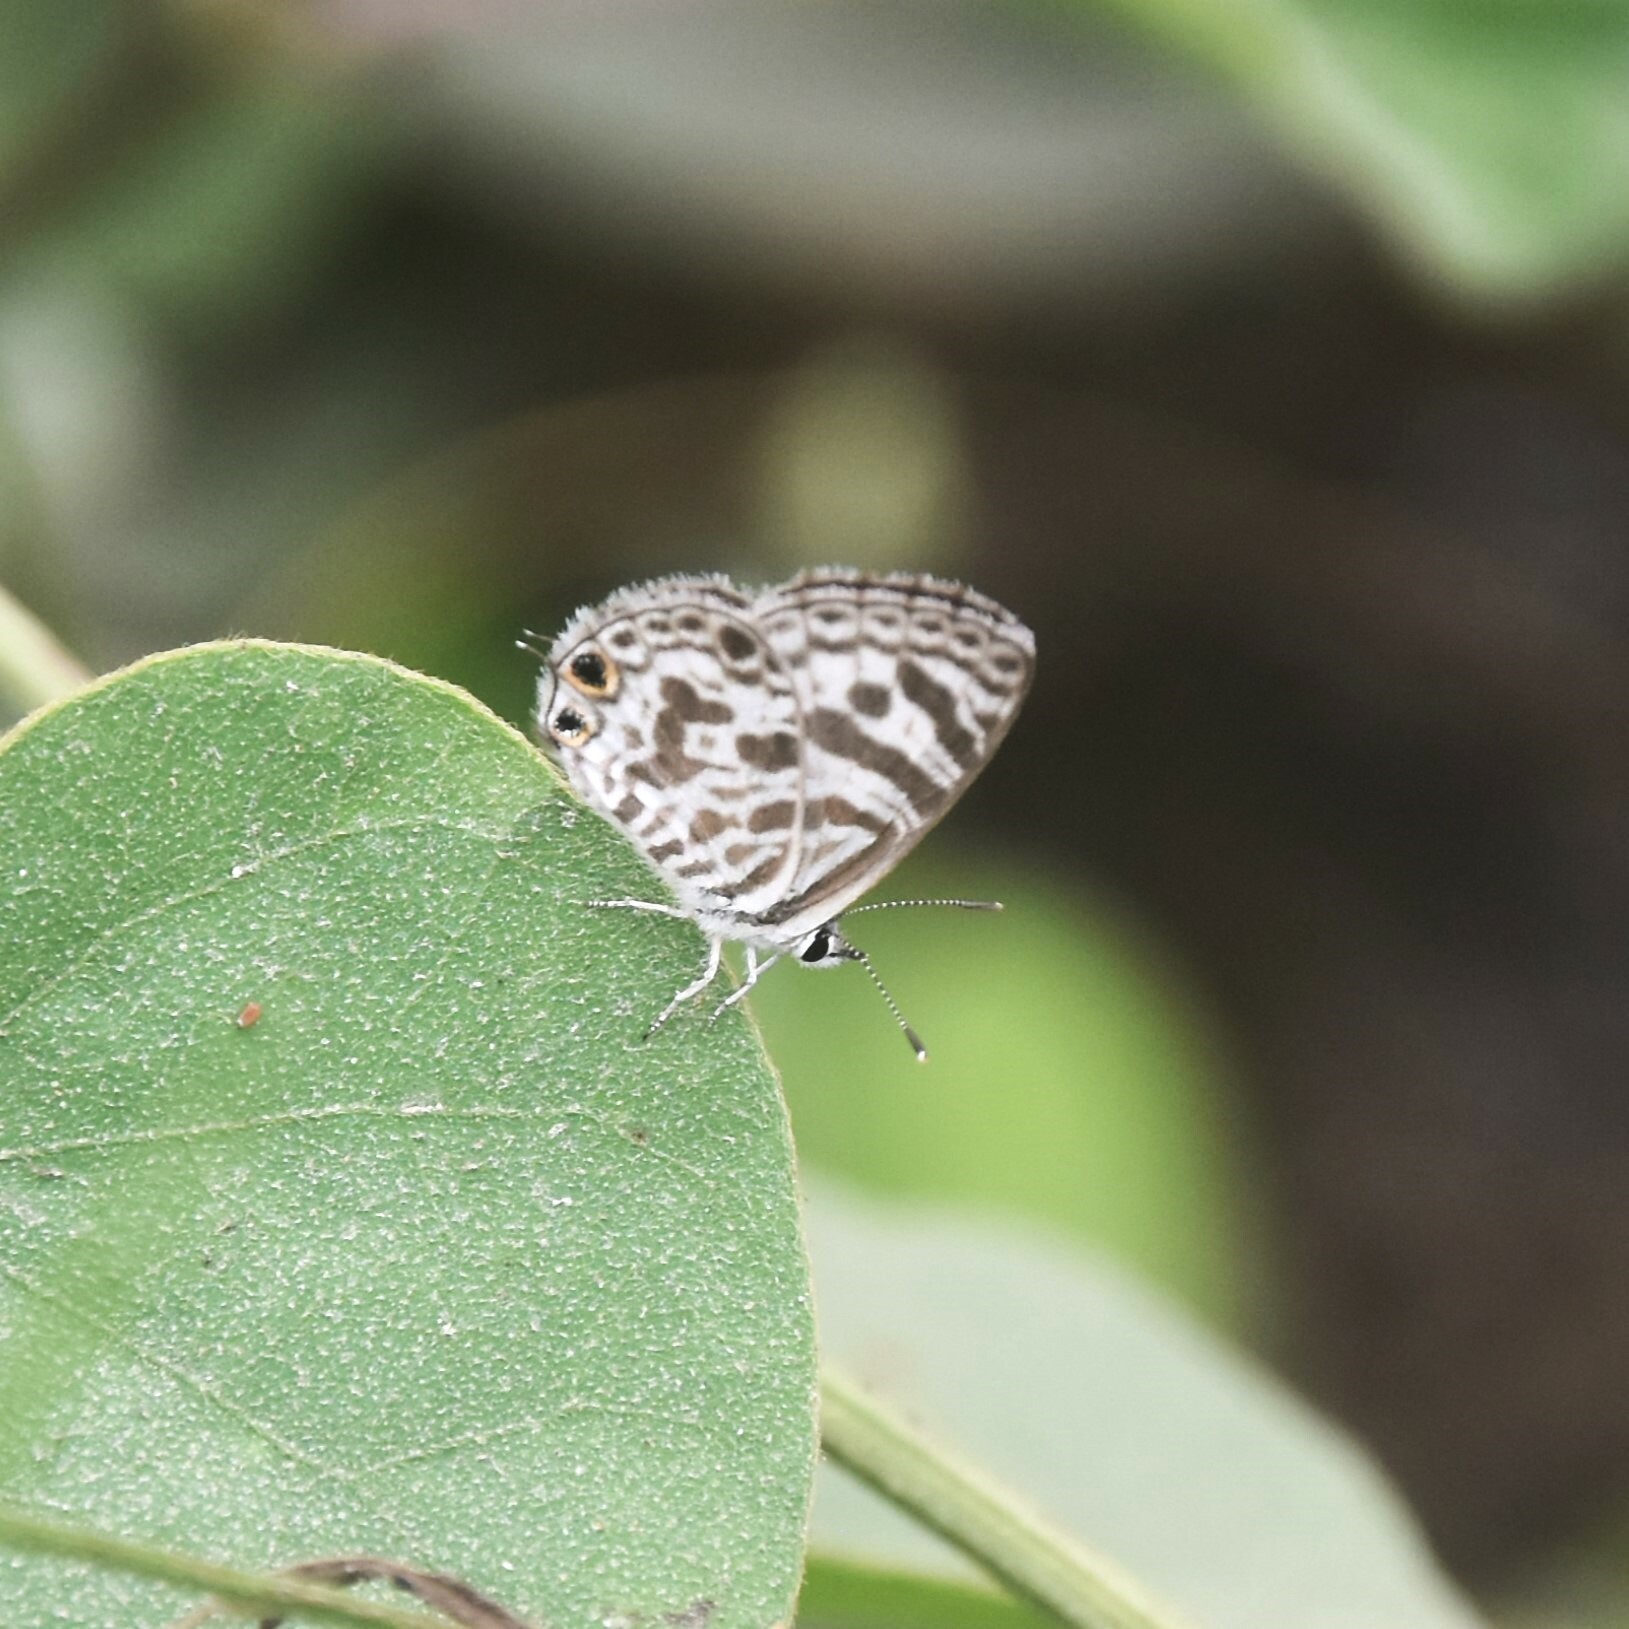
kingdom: Animalia
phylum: Arthropoda
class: Insecta
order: Lepidoptera
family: Lycaenidae
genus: Leptotes
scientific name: Leptotes plinius
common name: Zebra blue
